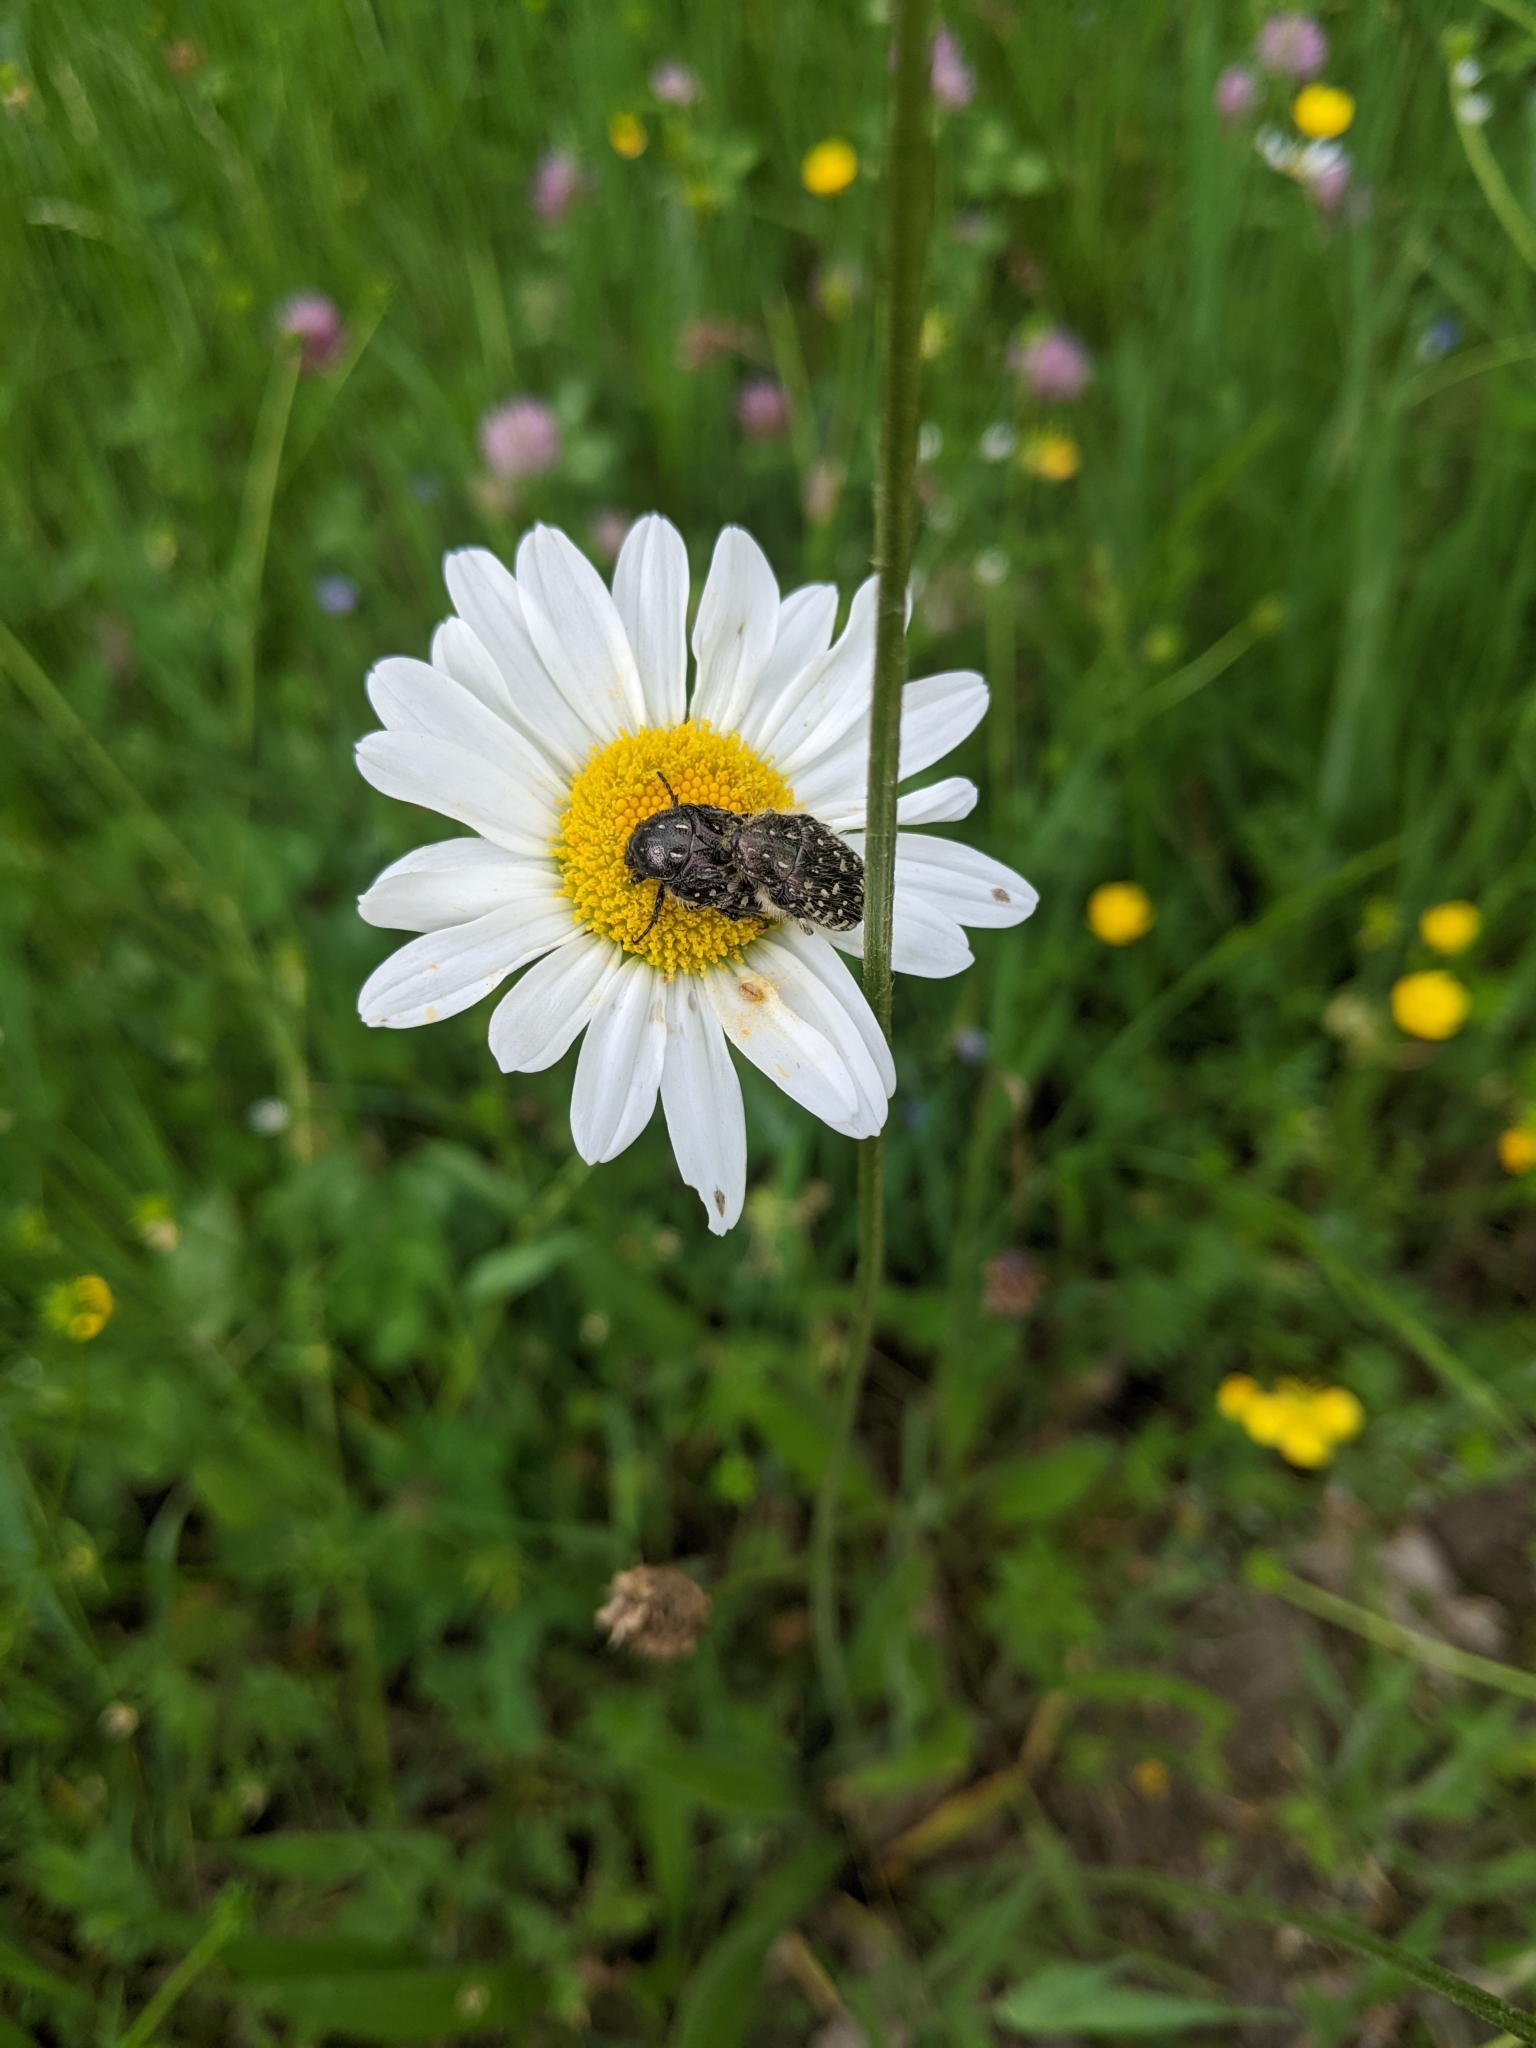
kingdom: Animalia
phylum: Arthropoda
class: Insecta
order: Coleoptera
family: Scarabaeidae
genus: Oxythyrea
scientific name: Oxythyrea funesta
